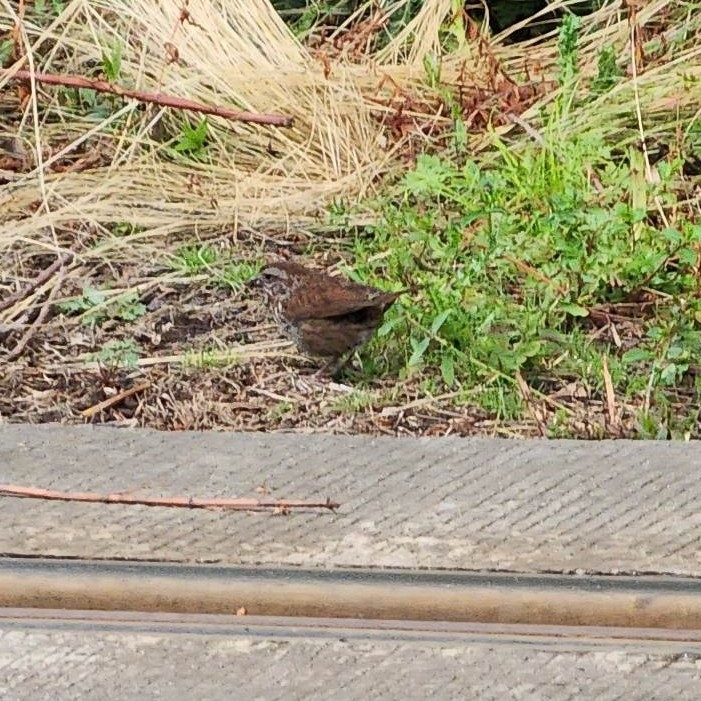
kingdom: Animalia
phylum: Chordata
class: Aves
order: Passeriformes
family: Passerellidae
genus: Melospiza
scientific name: Melospiza melodia
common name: Song sparrow
